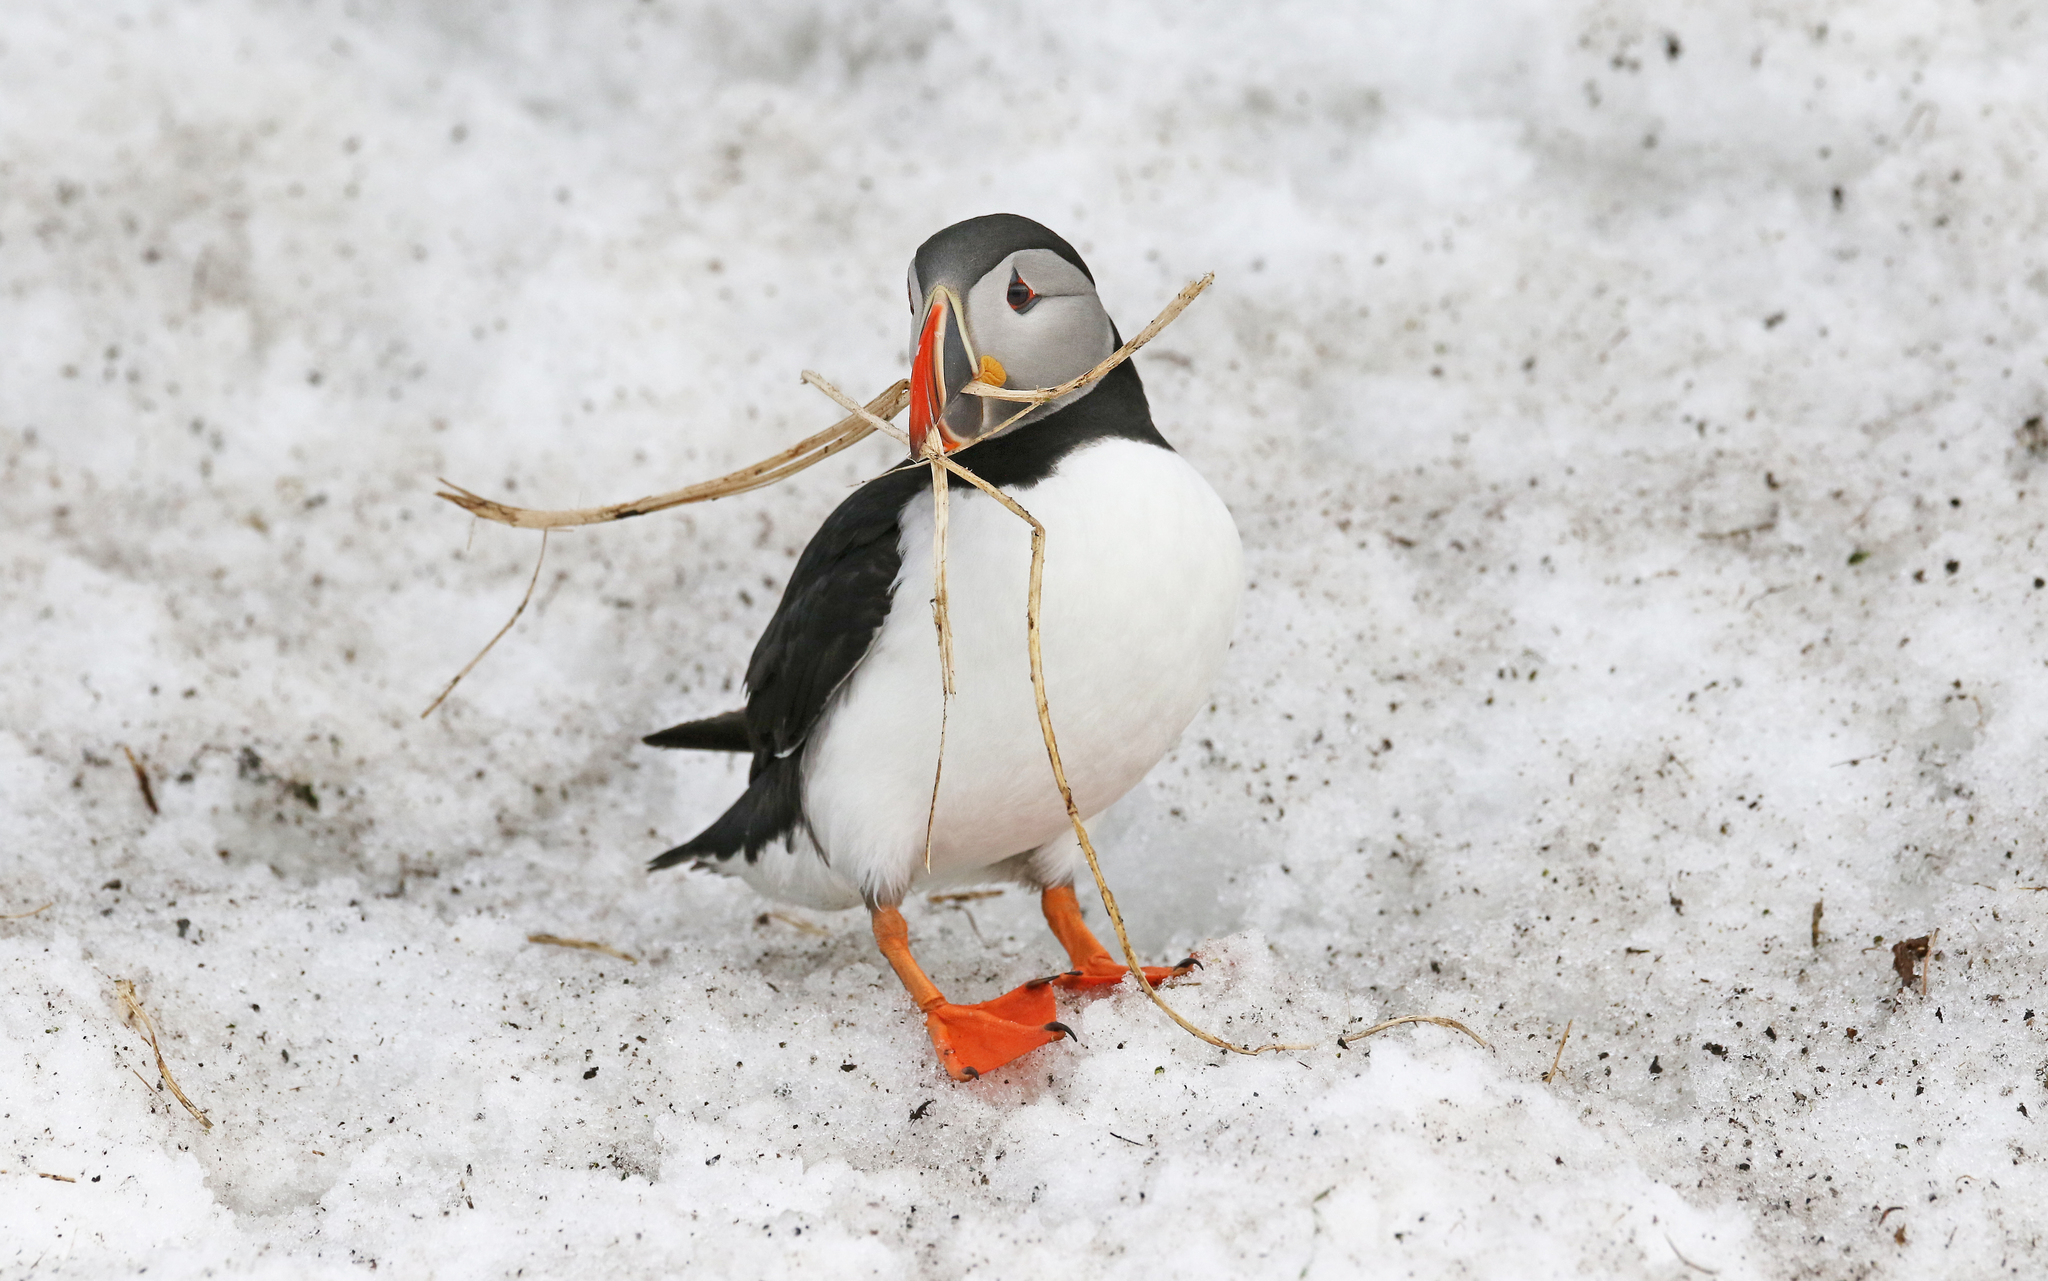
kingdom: Animalia
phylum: Chordata
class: Aves
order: Charadriiformes
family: Alcidae
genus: Fratercula
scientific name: Fratercula arctica
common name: Atlantic puffin
